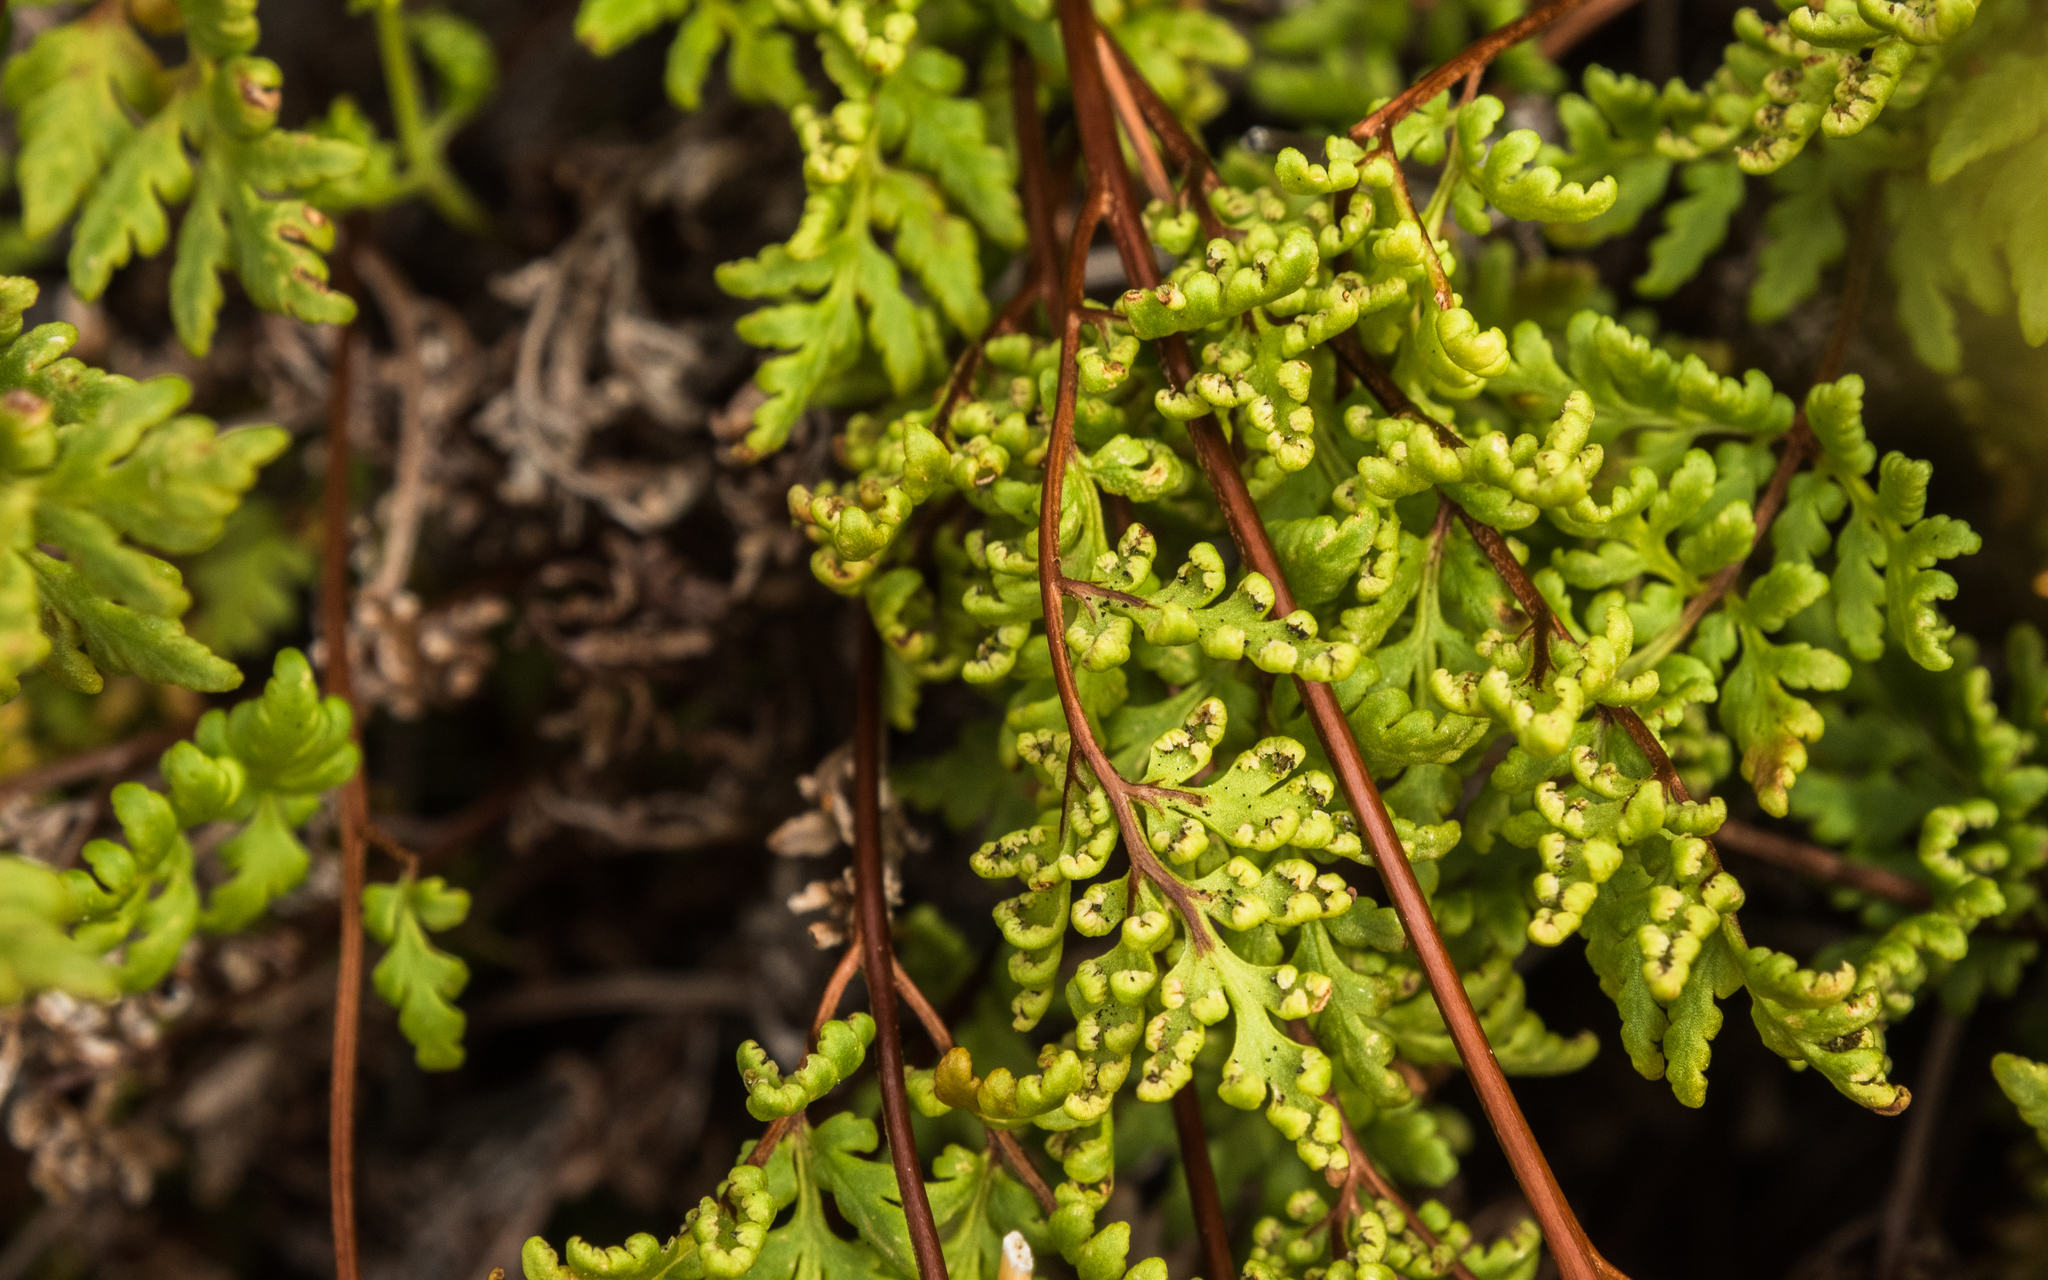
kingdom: Plantae
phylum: Tracheophyta
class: Polypodiopsida
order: Polypodiales
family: Pteridaceae
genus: Cheilanthes
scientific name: Cheilanthes sieberi
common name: Mulga fern
